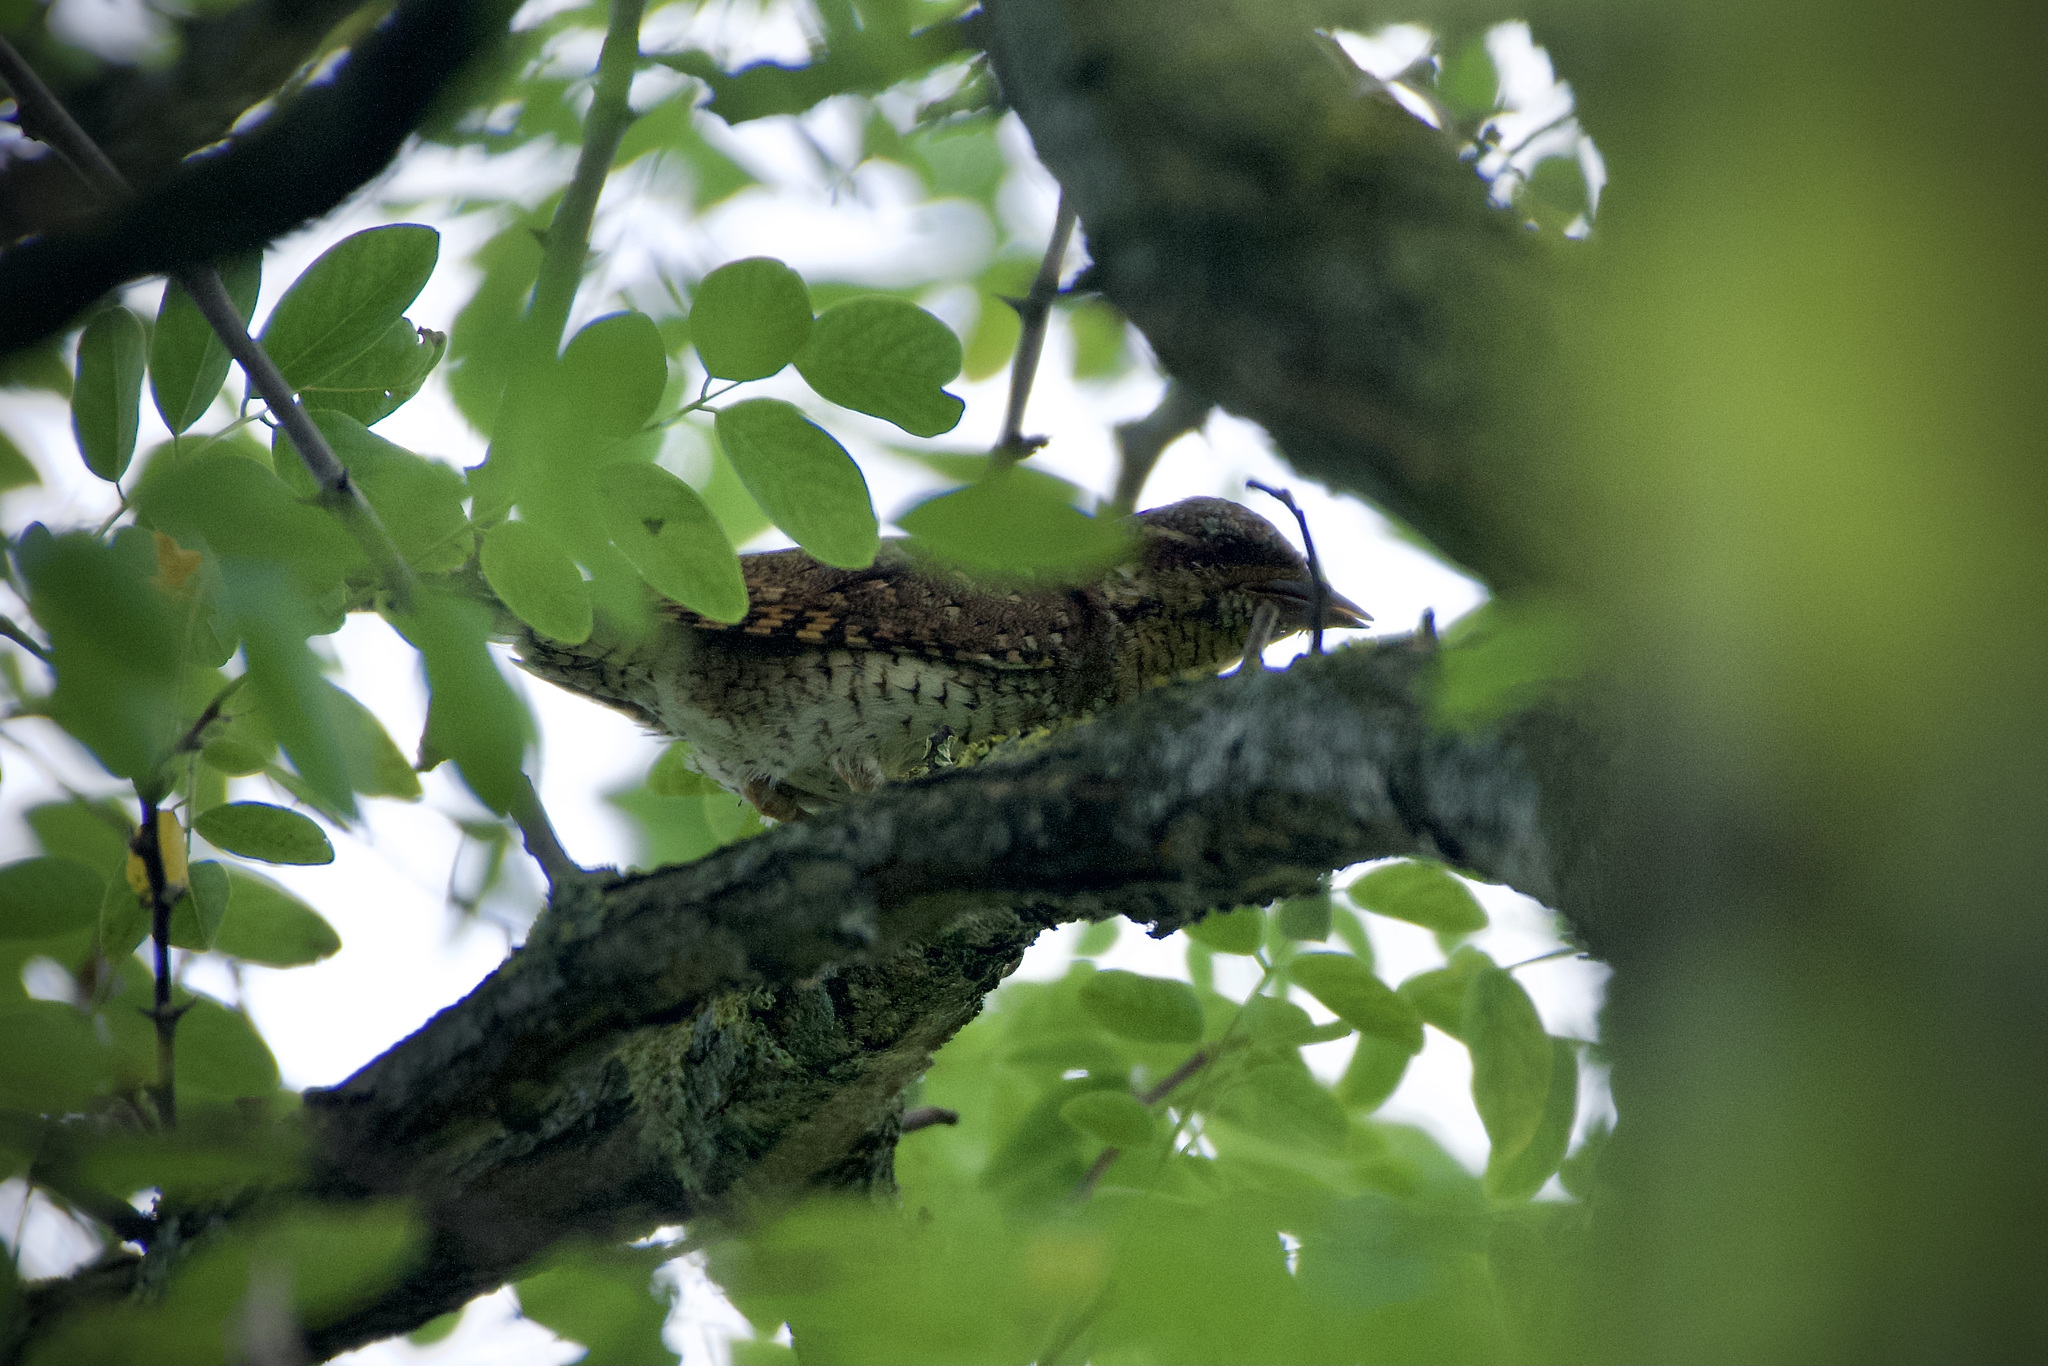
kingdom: Animalia
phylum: Chordata
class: Aves
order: Piciformes
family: Picidae
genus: Jynx
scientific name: Jynx torquilla
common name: Eurasian wryneck
